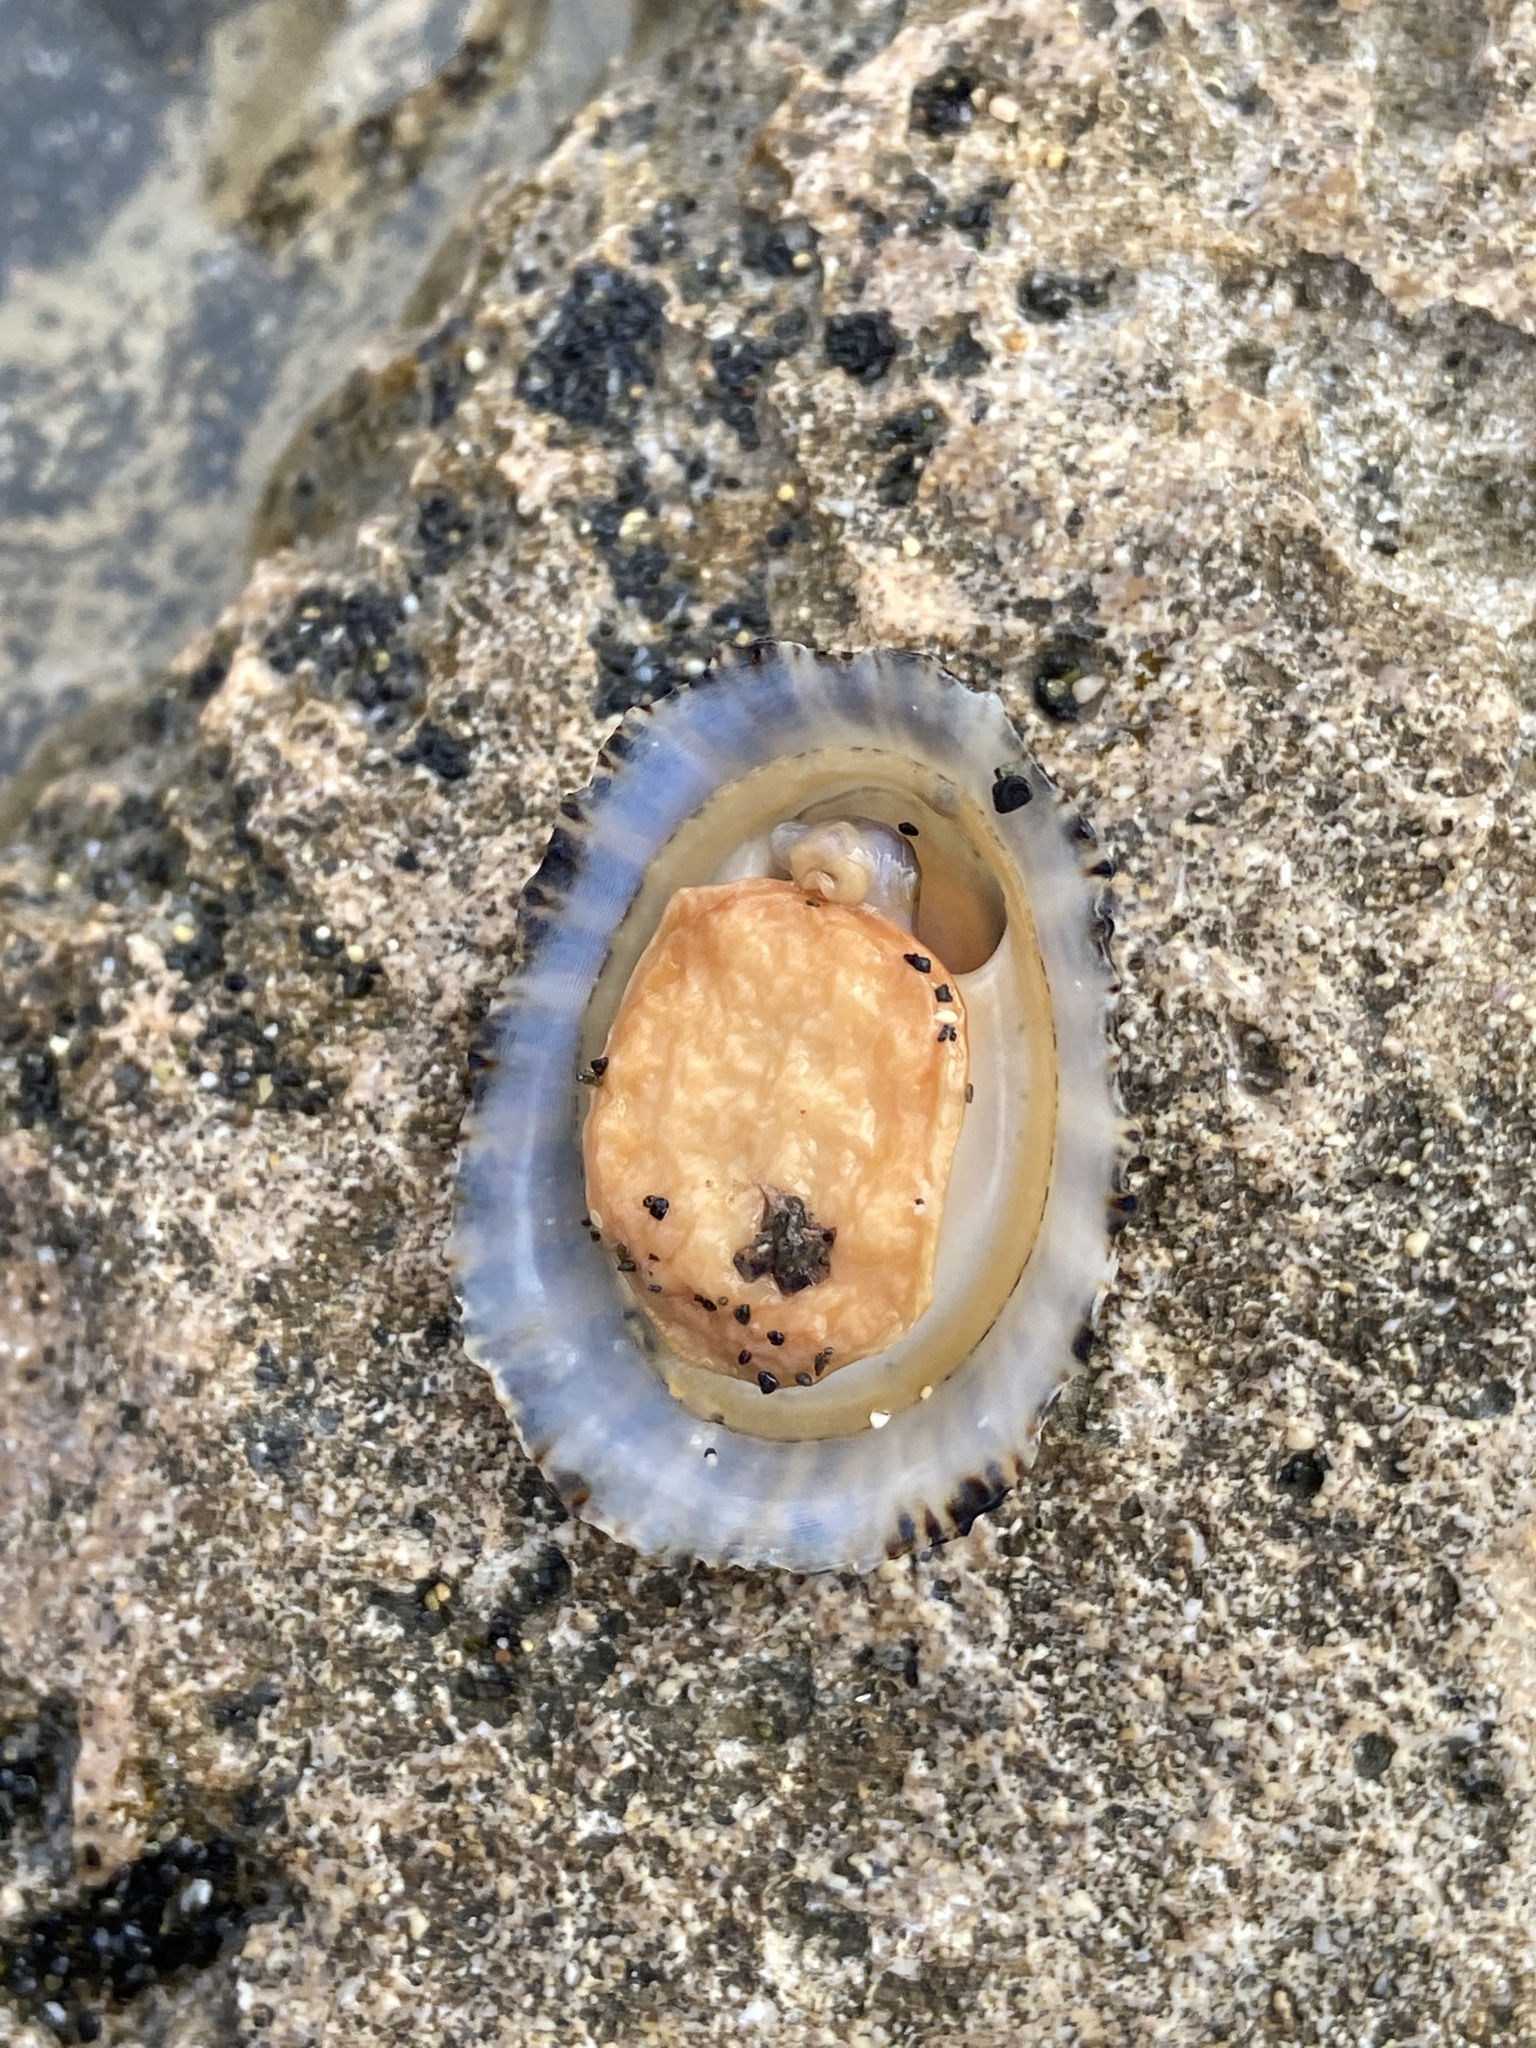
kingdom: Animalia
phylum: Mollusca
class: Gastropoda
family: Patellidae
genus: Patella
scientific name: Patella piperata
